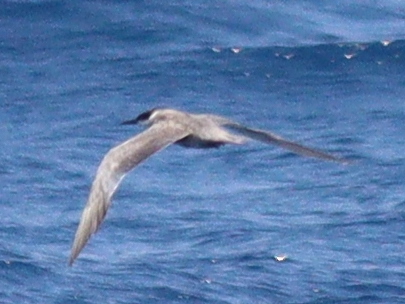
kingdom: Animalia
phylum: Chordata
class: Aves
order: Charadriiformes
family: Laridae
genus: Sterna
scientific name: Sterna repressa
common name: White-cheeked tern
